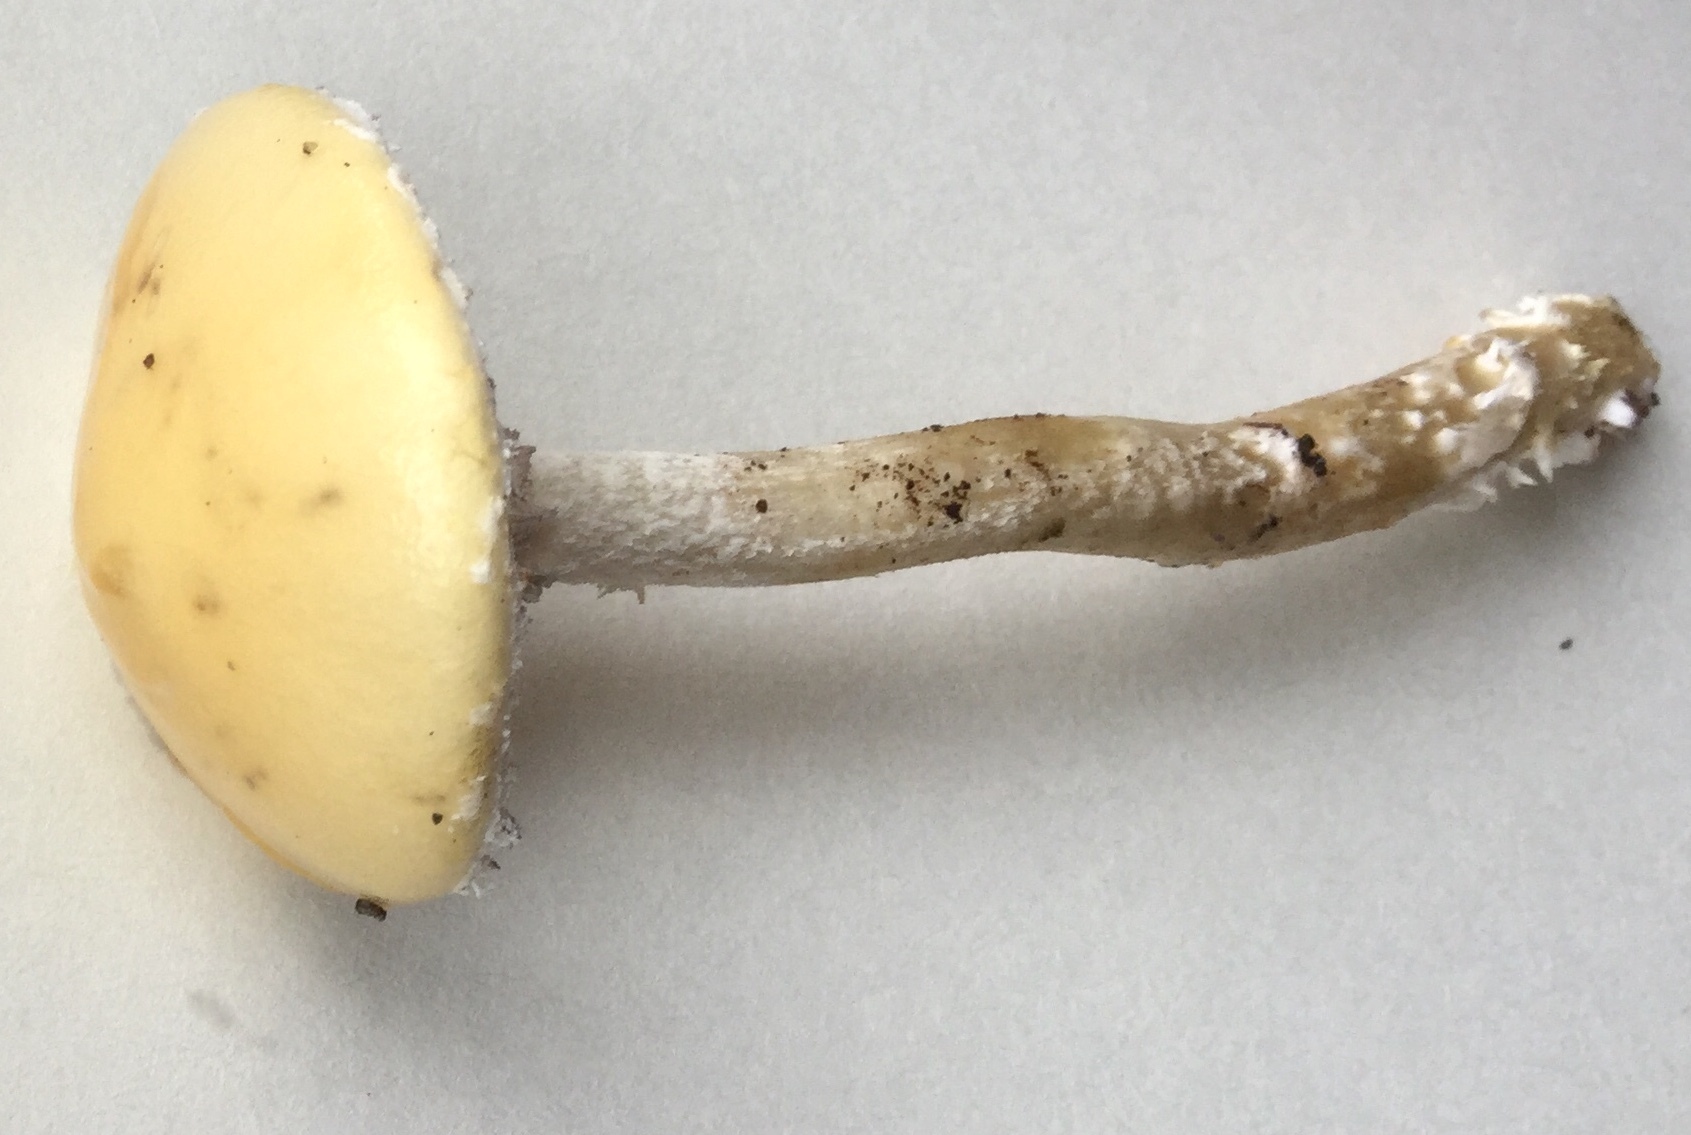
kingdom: Fungi
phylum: Basidiomycota
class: Agaricomycetes
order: Agaricales
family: Strophariaceae
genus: Stropharia
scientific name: Stropharia ambigua
